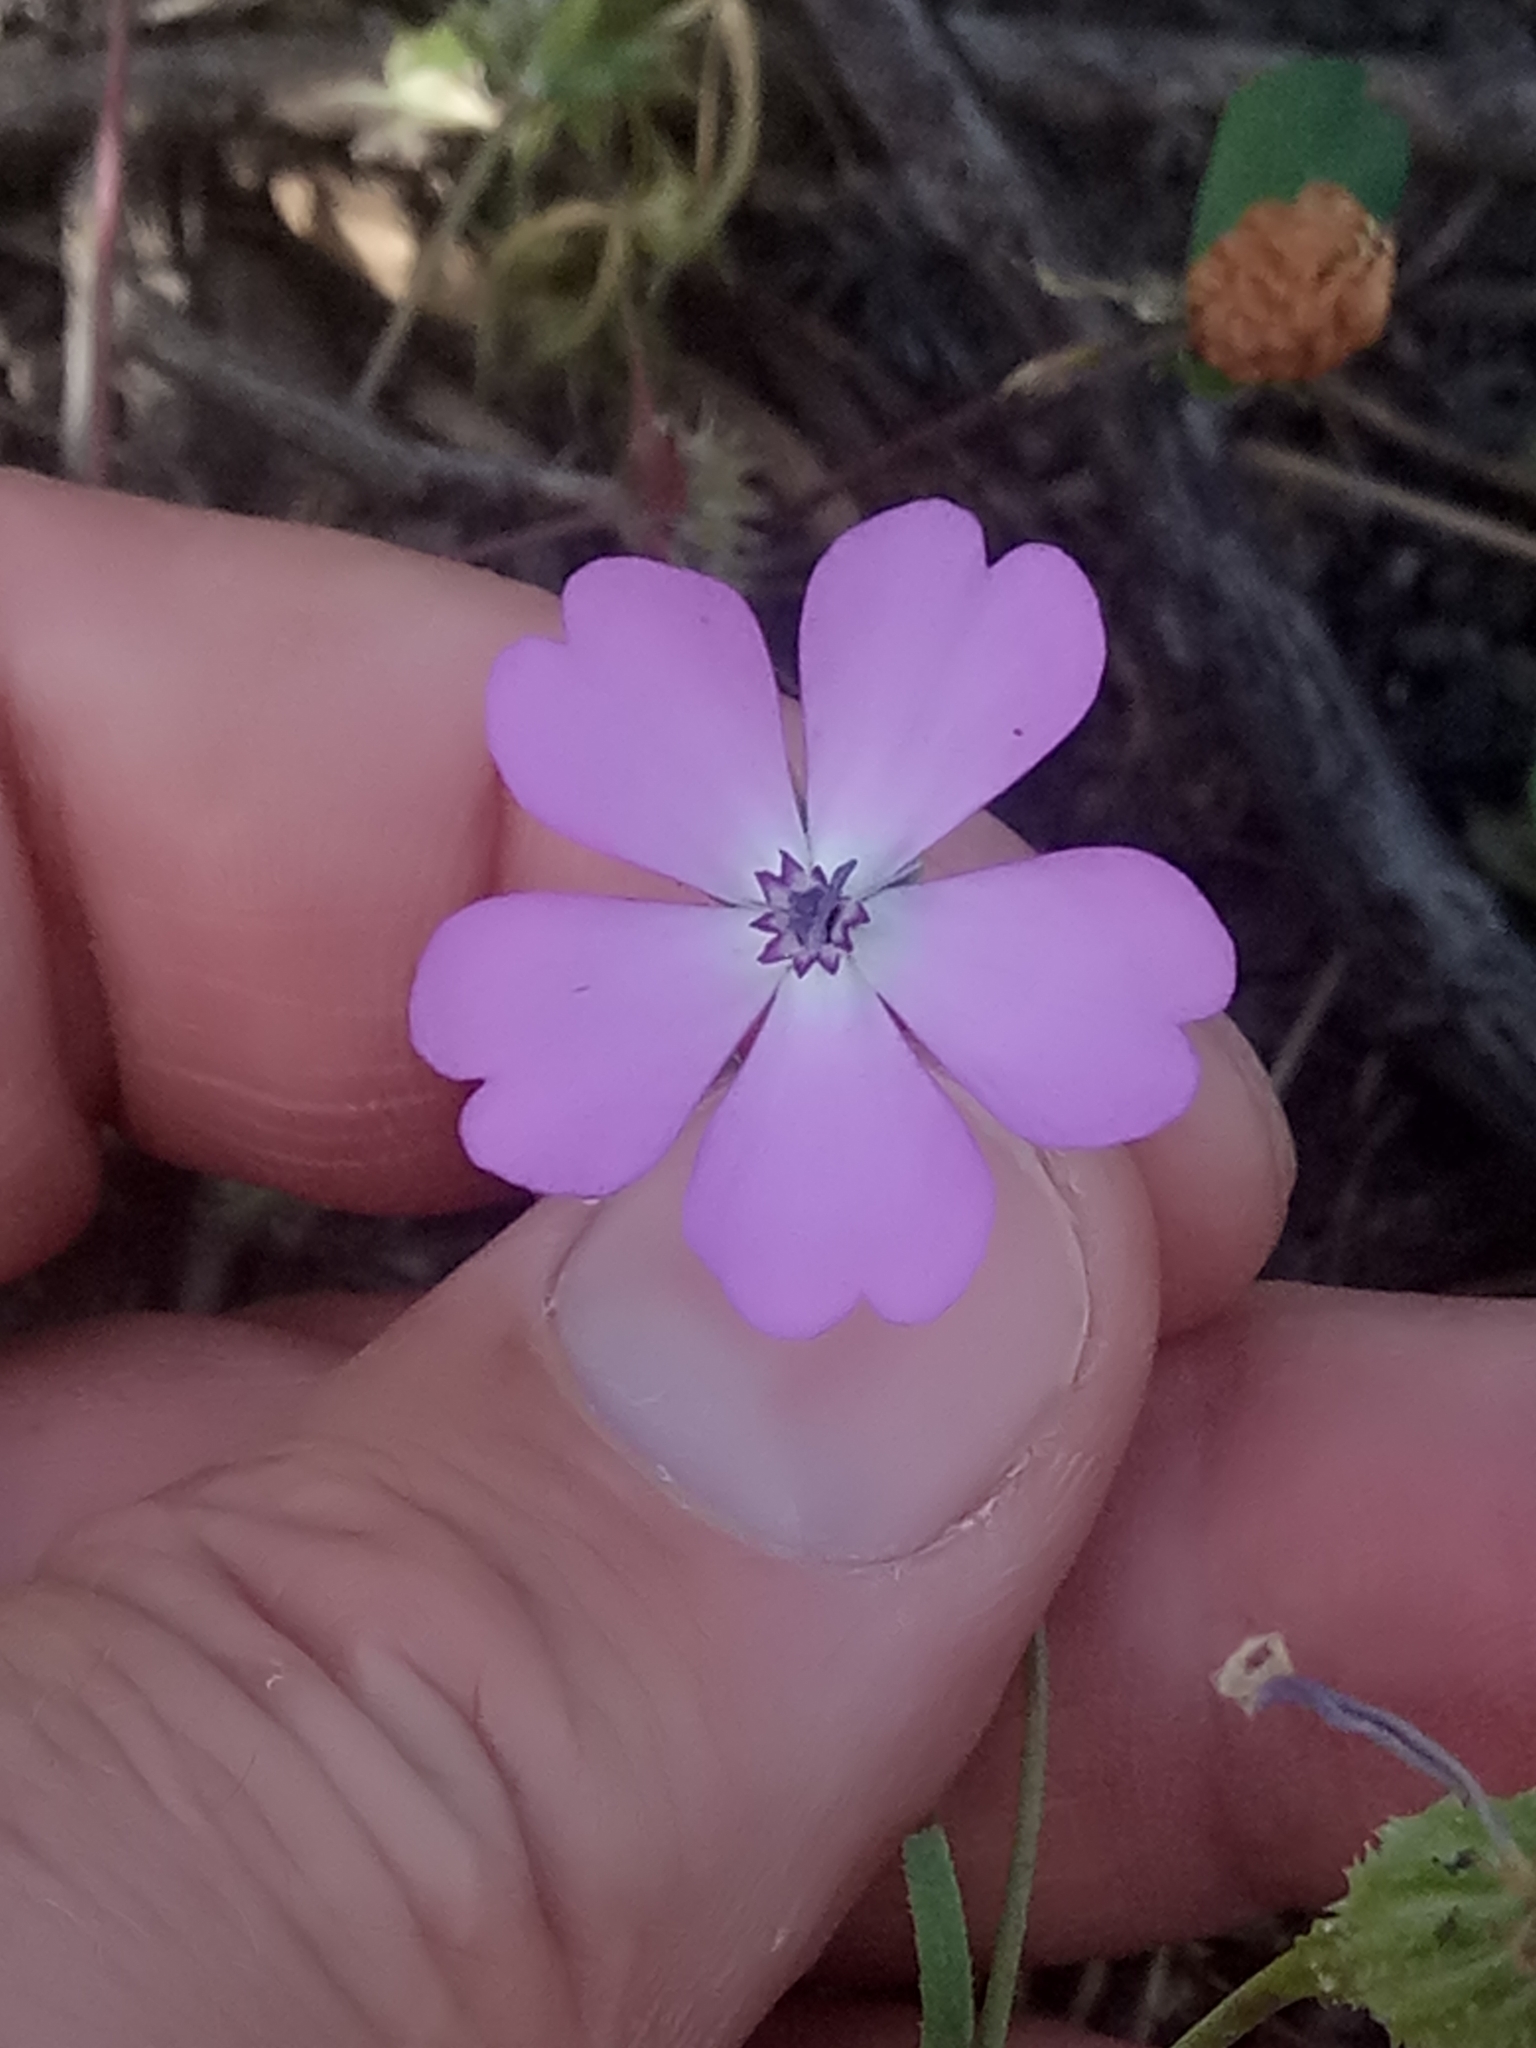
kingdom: Plantae
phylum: Tracheophyta
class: Magnoliopsida
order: Caryophyllales
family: Caryophyllaceae
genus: Eudianthe
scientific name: Eudianthe coeli-rosa
